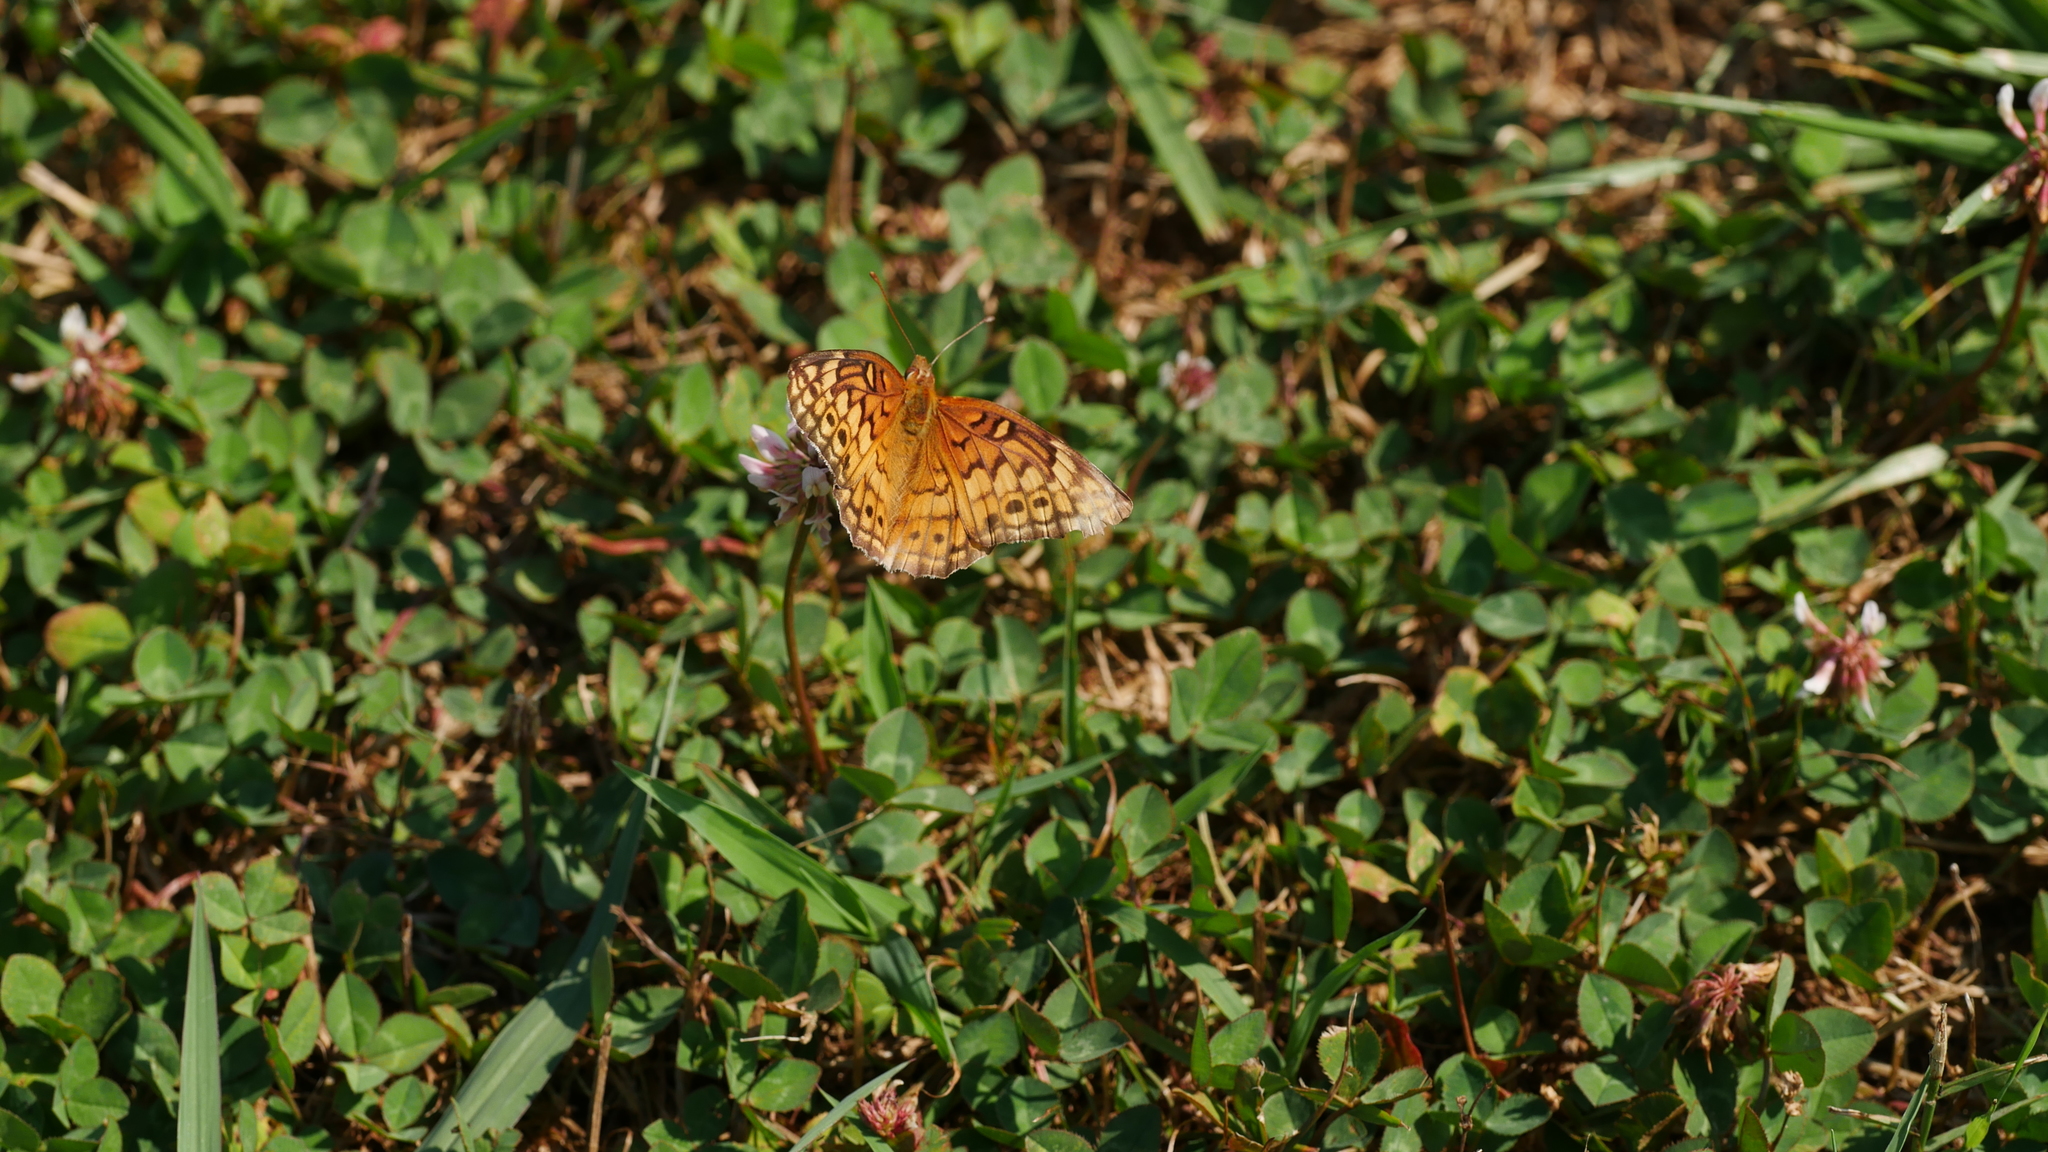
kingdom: Animalia
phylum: Arthropoda
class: Insecta
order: Lepidoptera
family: Nymphalidae
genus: Euptoieta
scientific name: Euptoieta claudia
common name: Variegated fritillary
